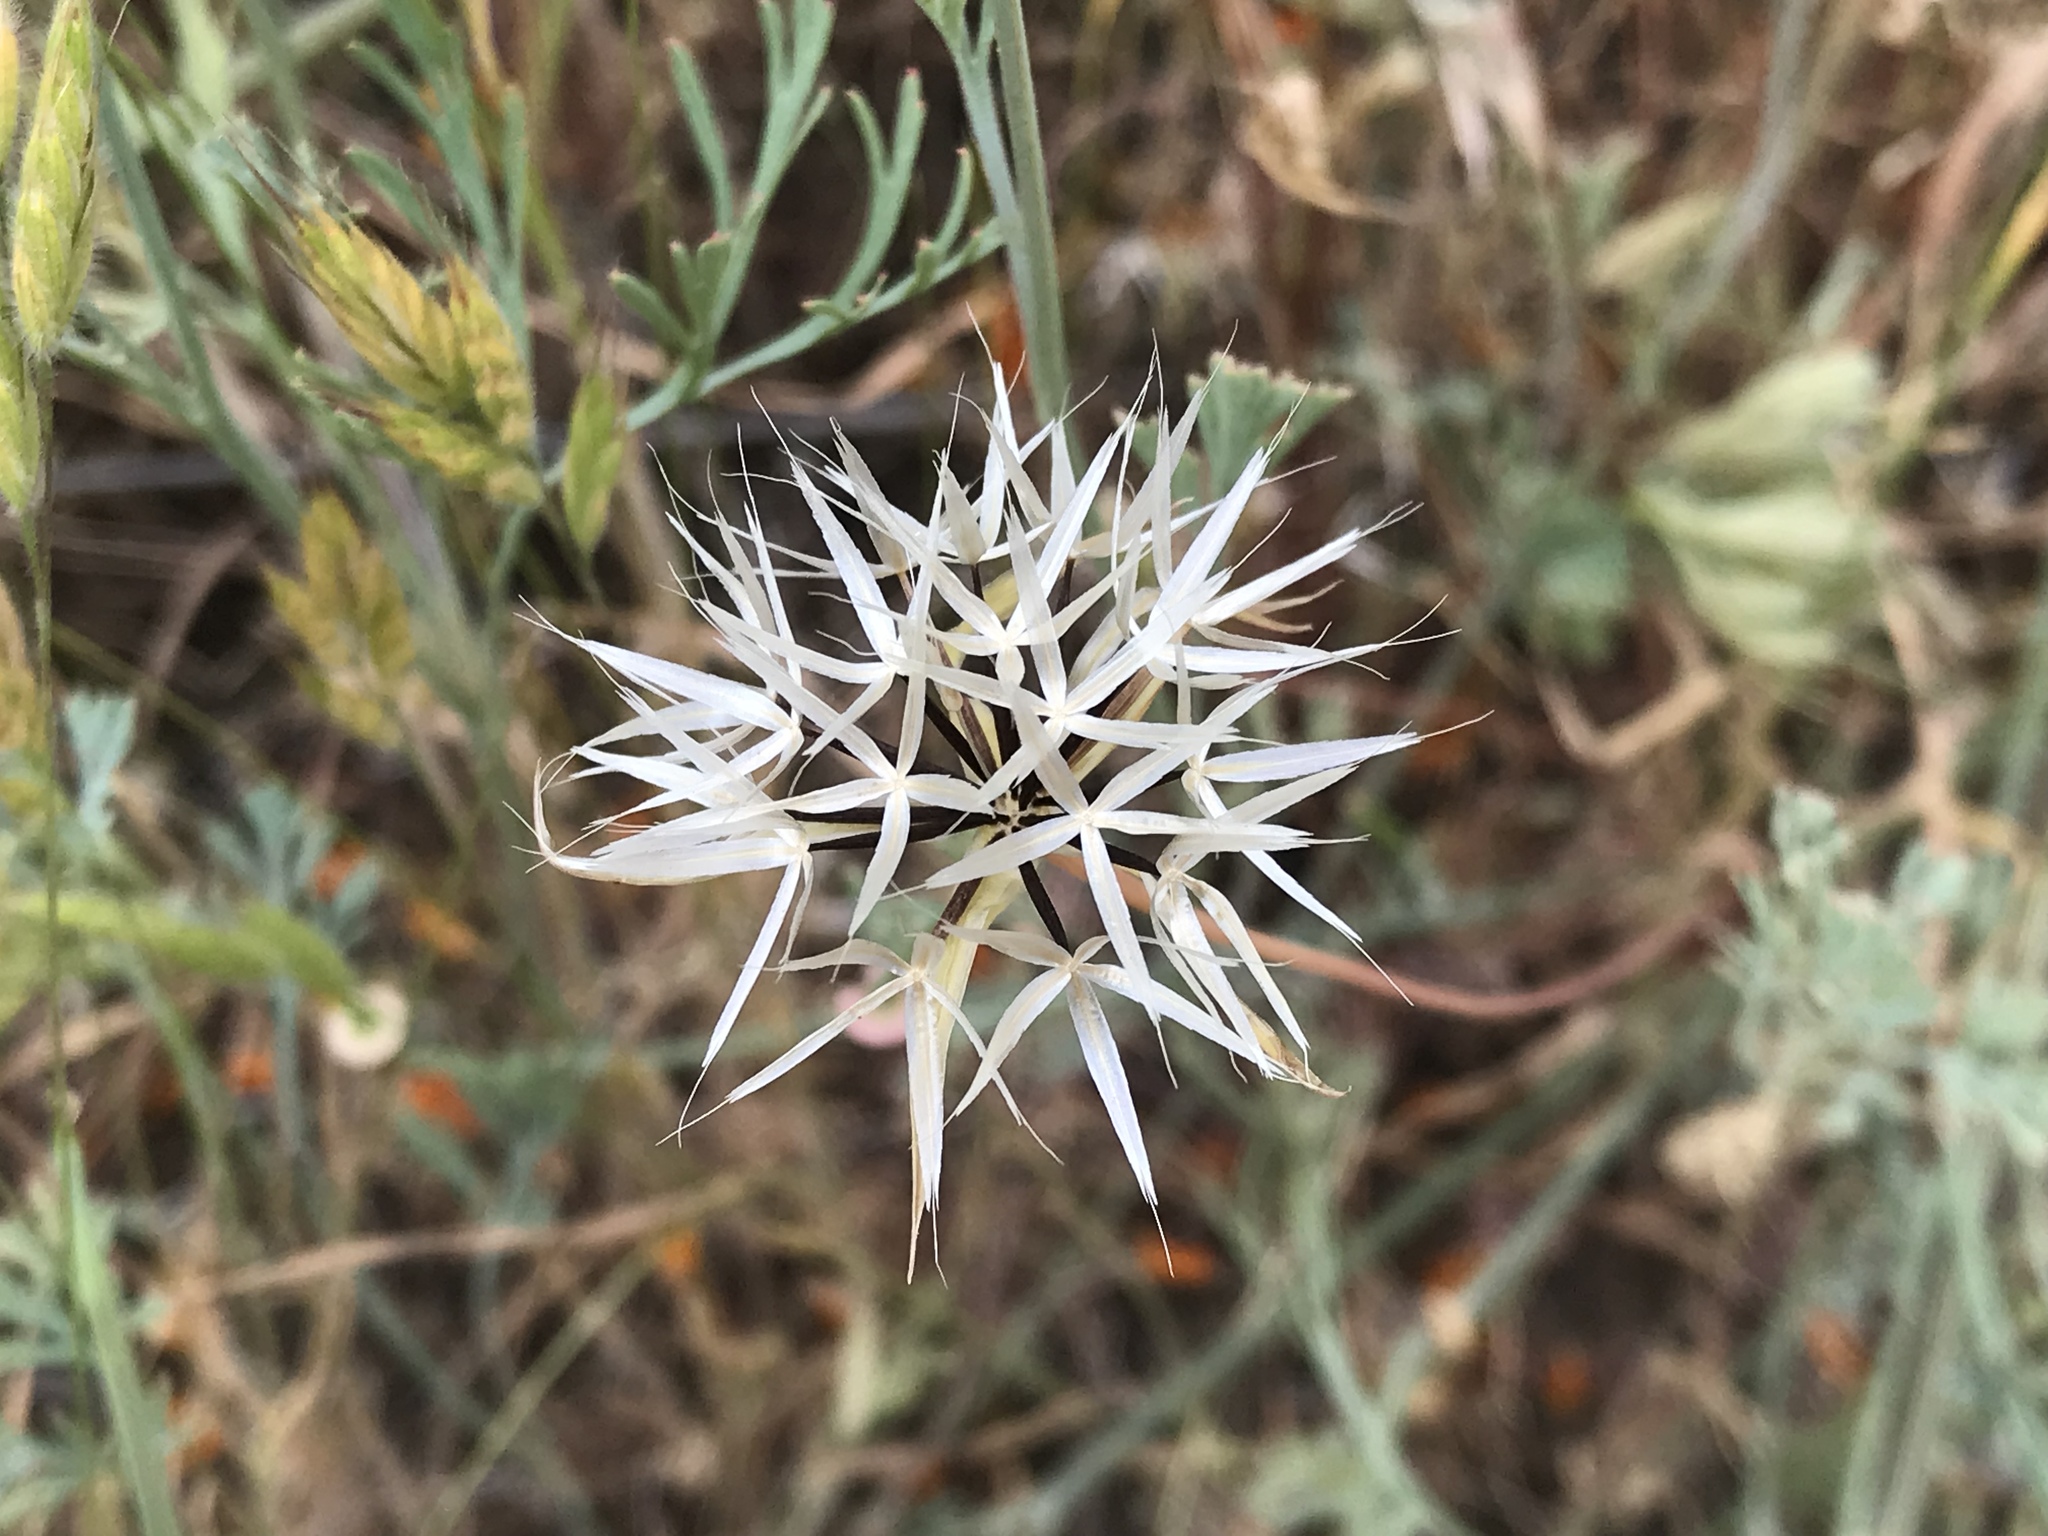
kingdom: Plantae
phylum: Tracheophyta
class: Magnoliopsida
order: Asterales
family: Asteraceae
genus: Microseris
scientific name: Microseris lindleyi
